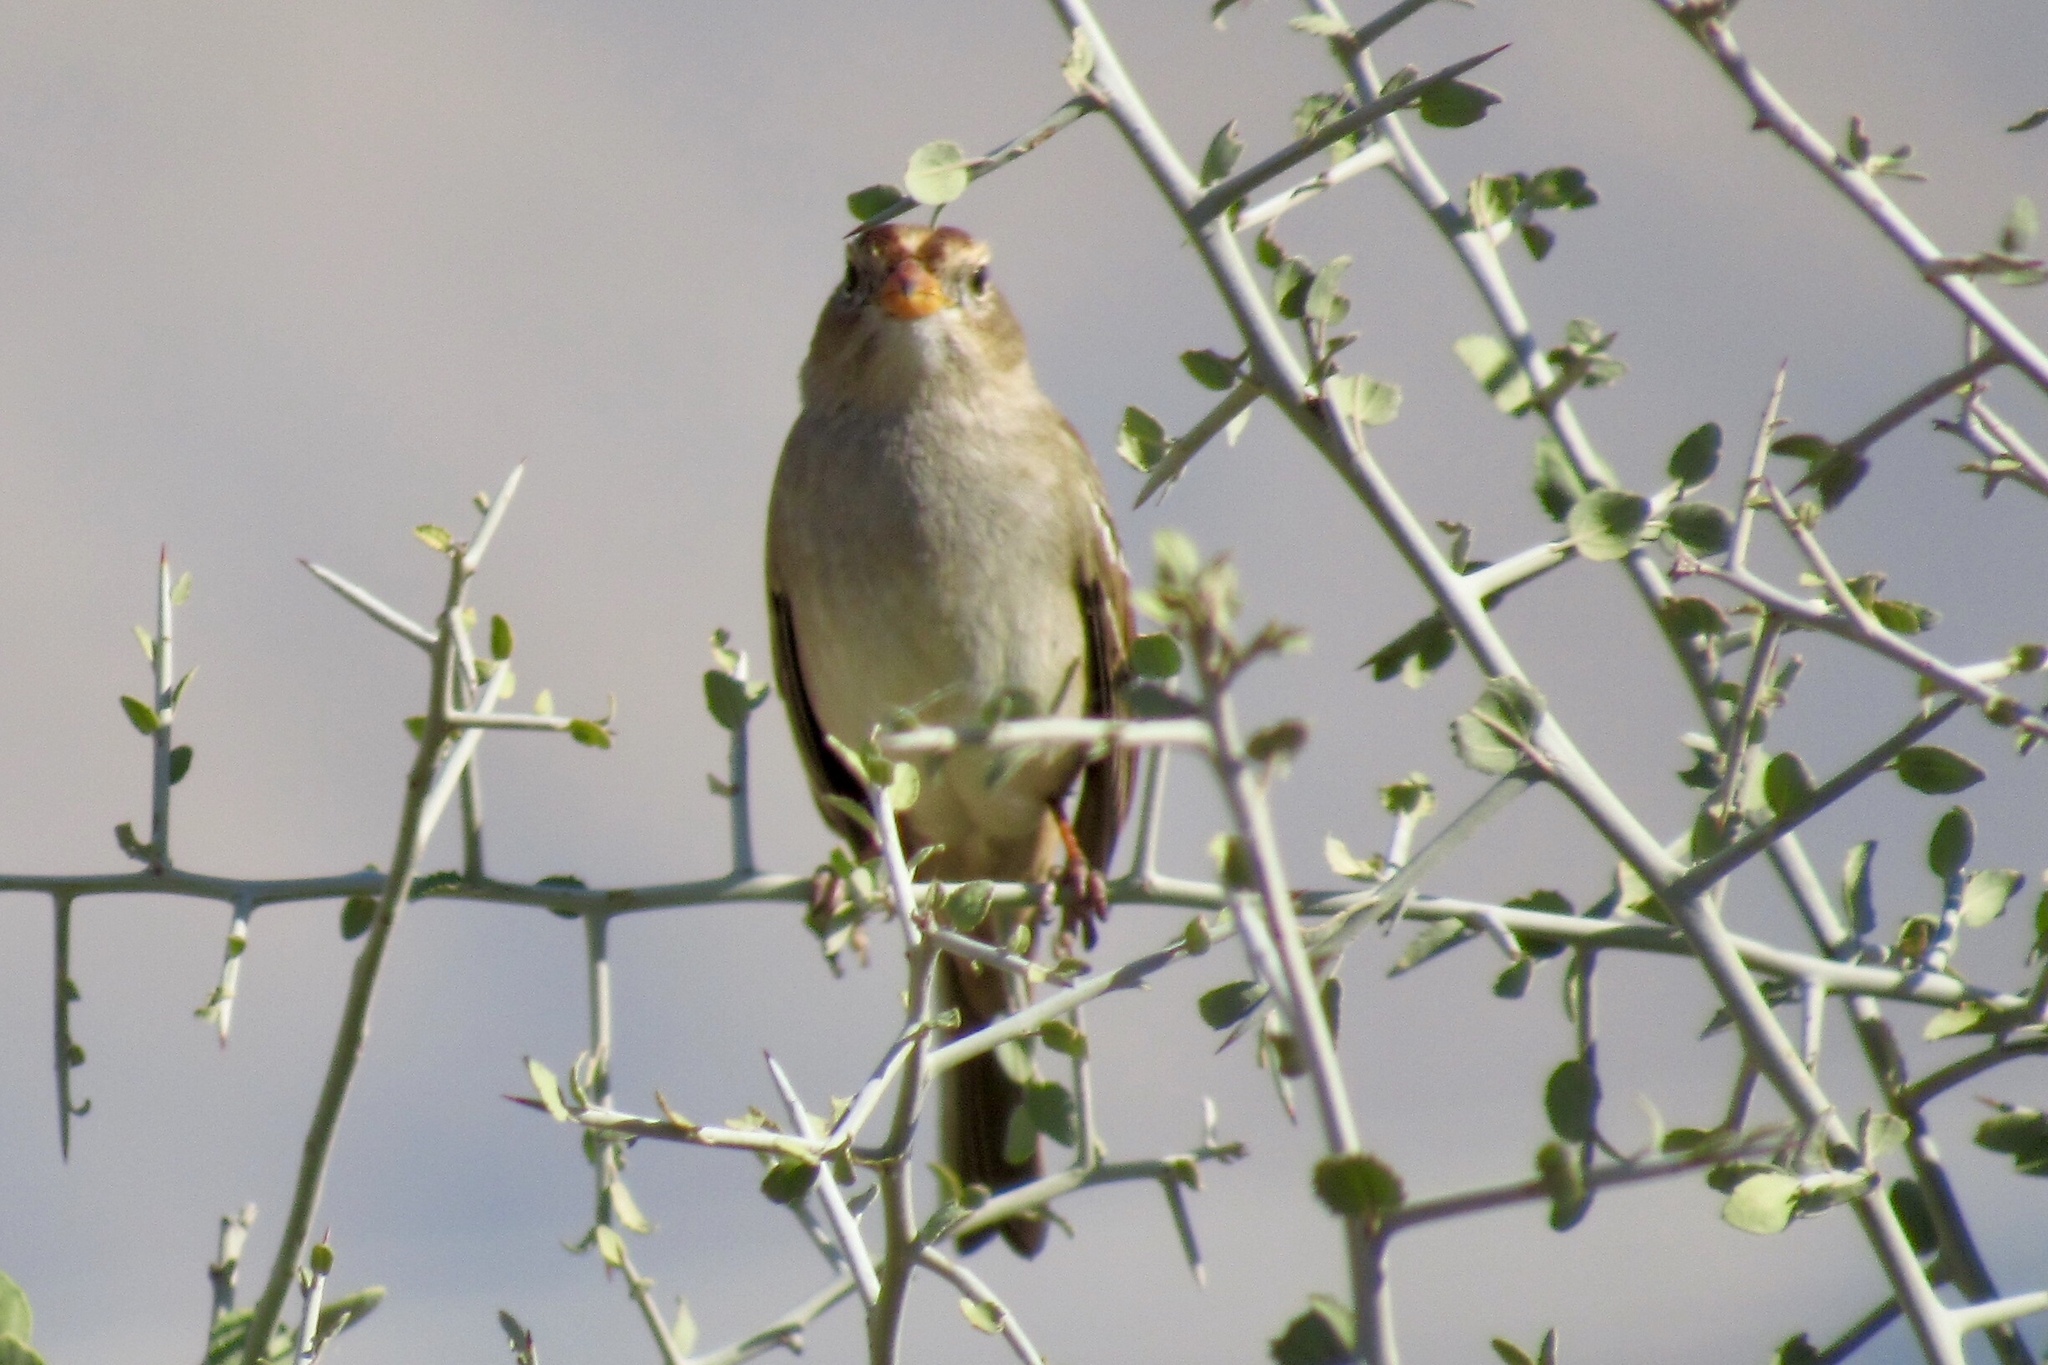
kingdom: Animalia
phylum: Chordata
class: Aves
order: Passeriformes
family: Passerellidae
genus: Zonotrichia
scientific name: Zonotrichia leucophrys
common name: White-crowned sparrow
